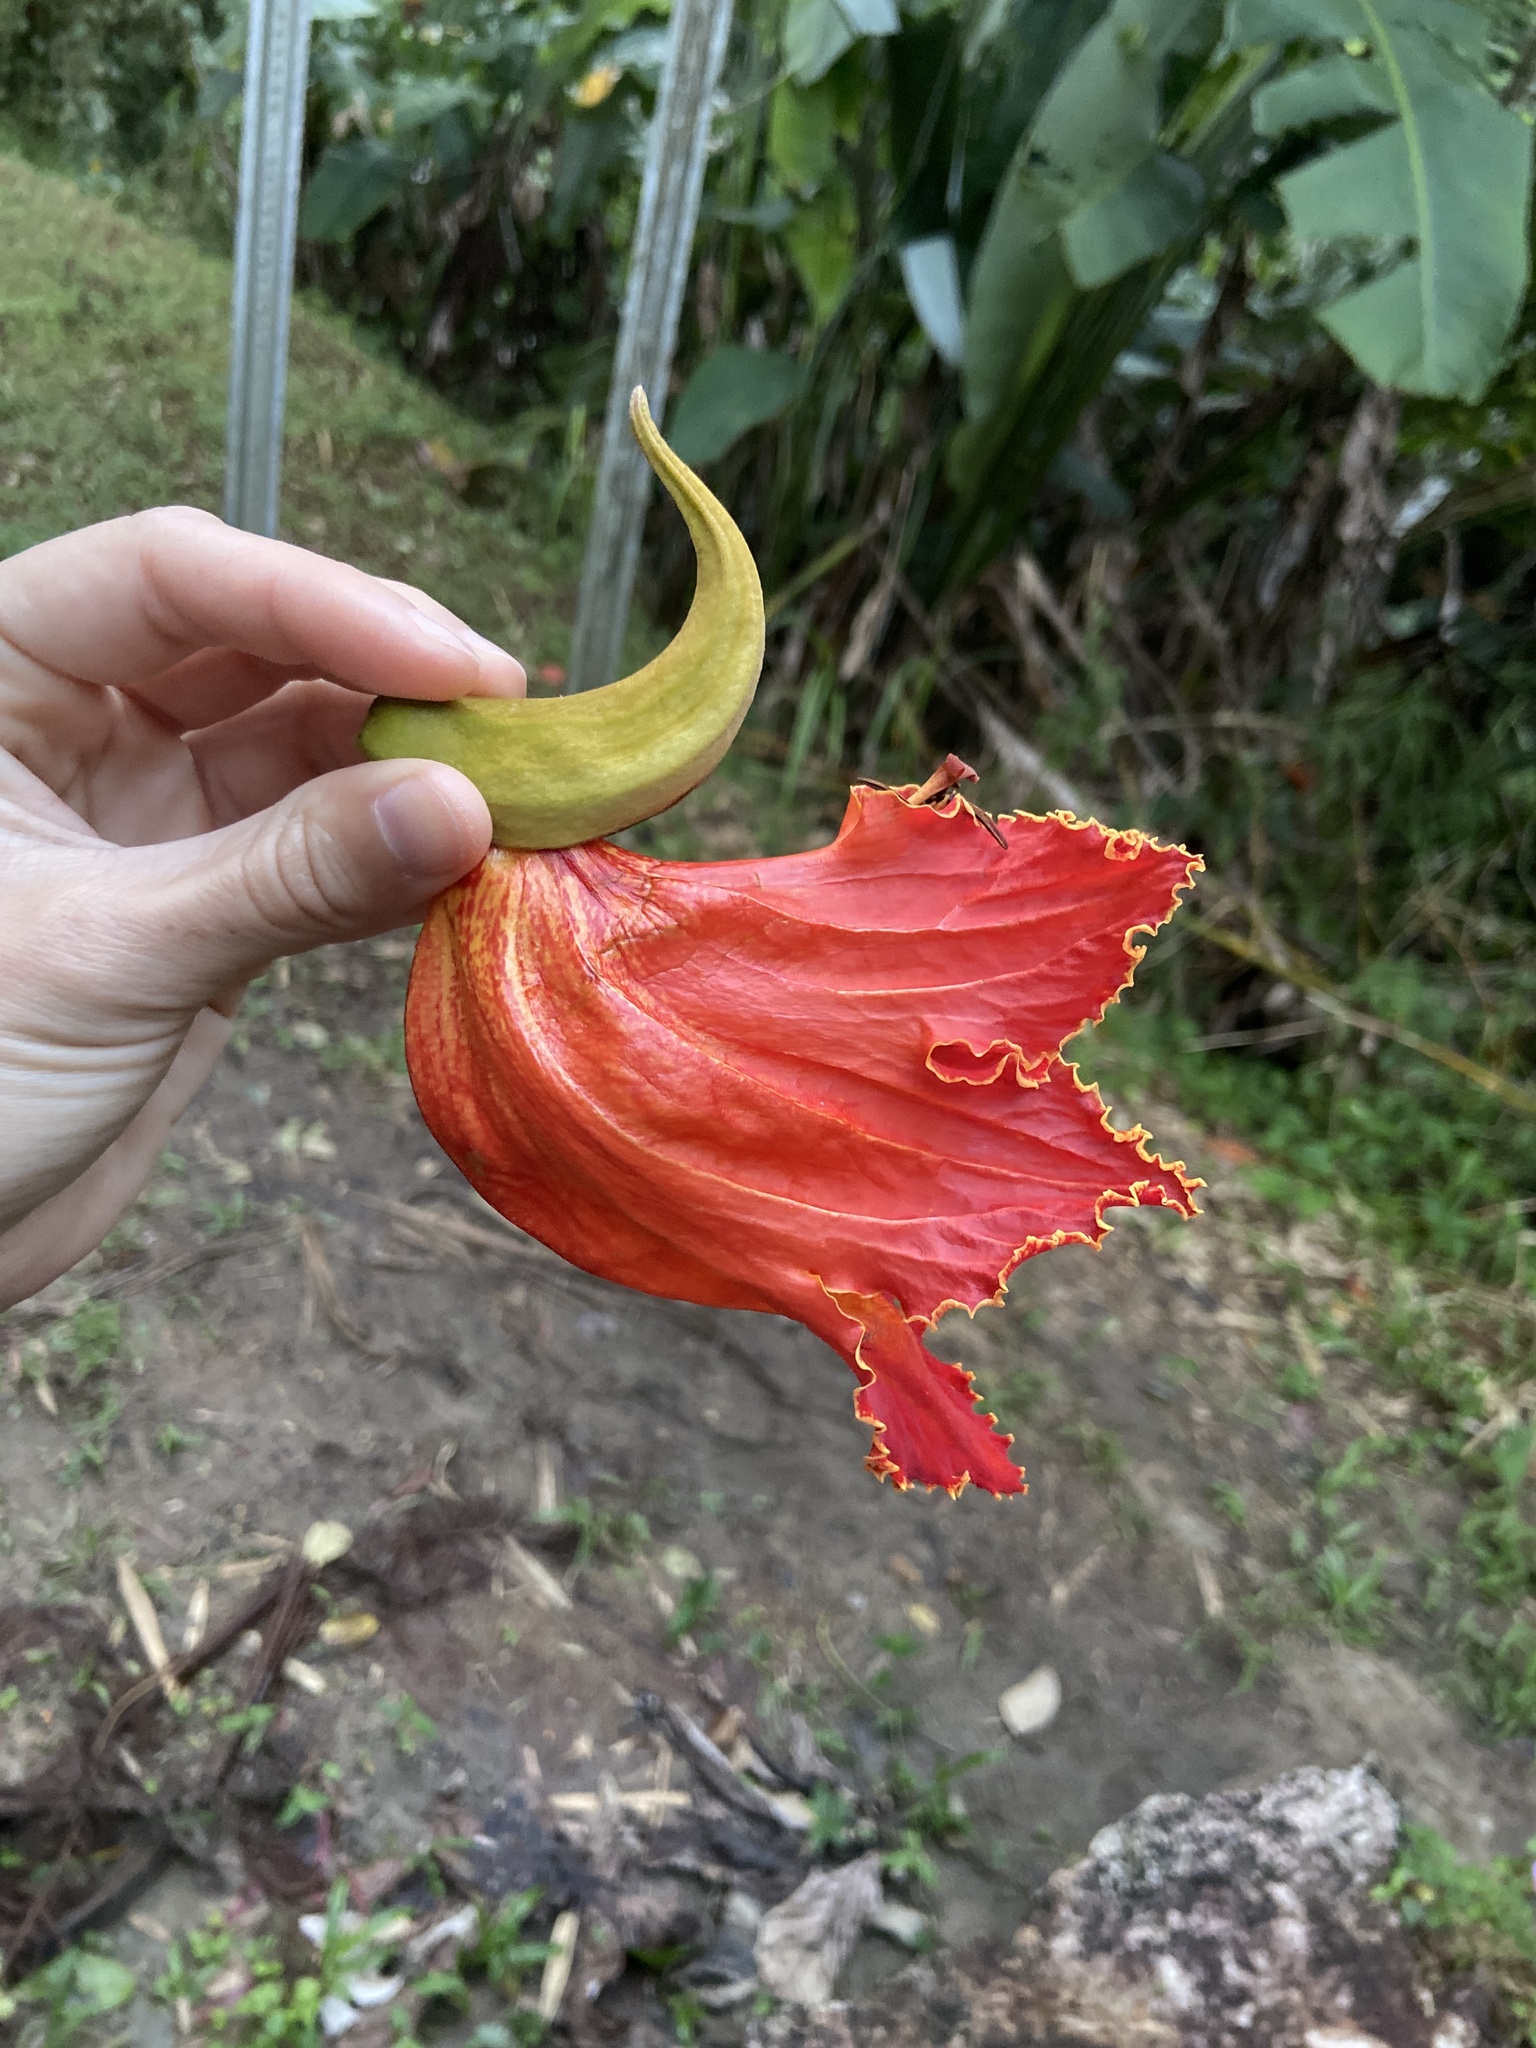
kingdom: Plantae
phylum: Tracheophyta
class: Magnoliopsida
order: Lamiales
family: Bignoniaceae
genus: Spathodea
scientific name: Spathodea campanulata
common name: African tuliptree
